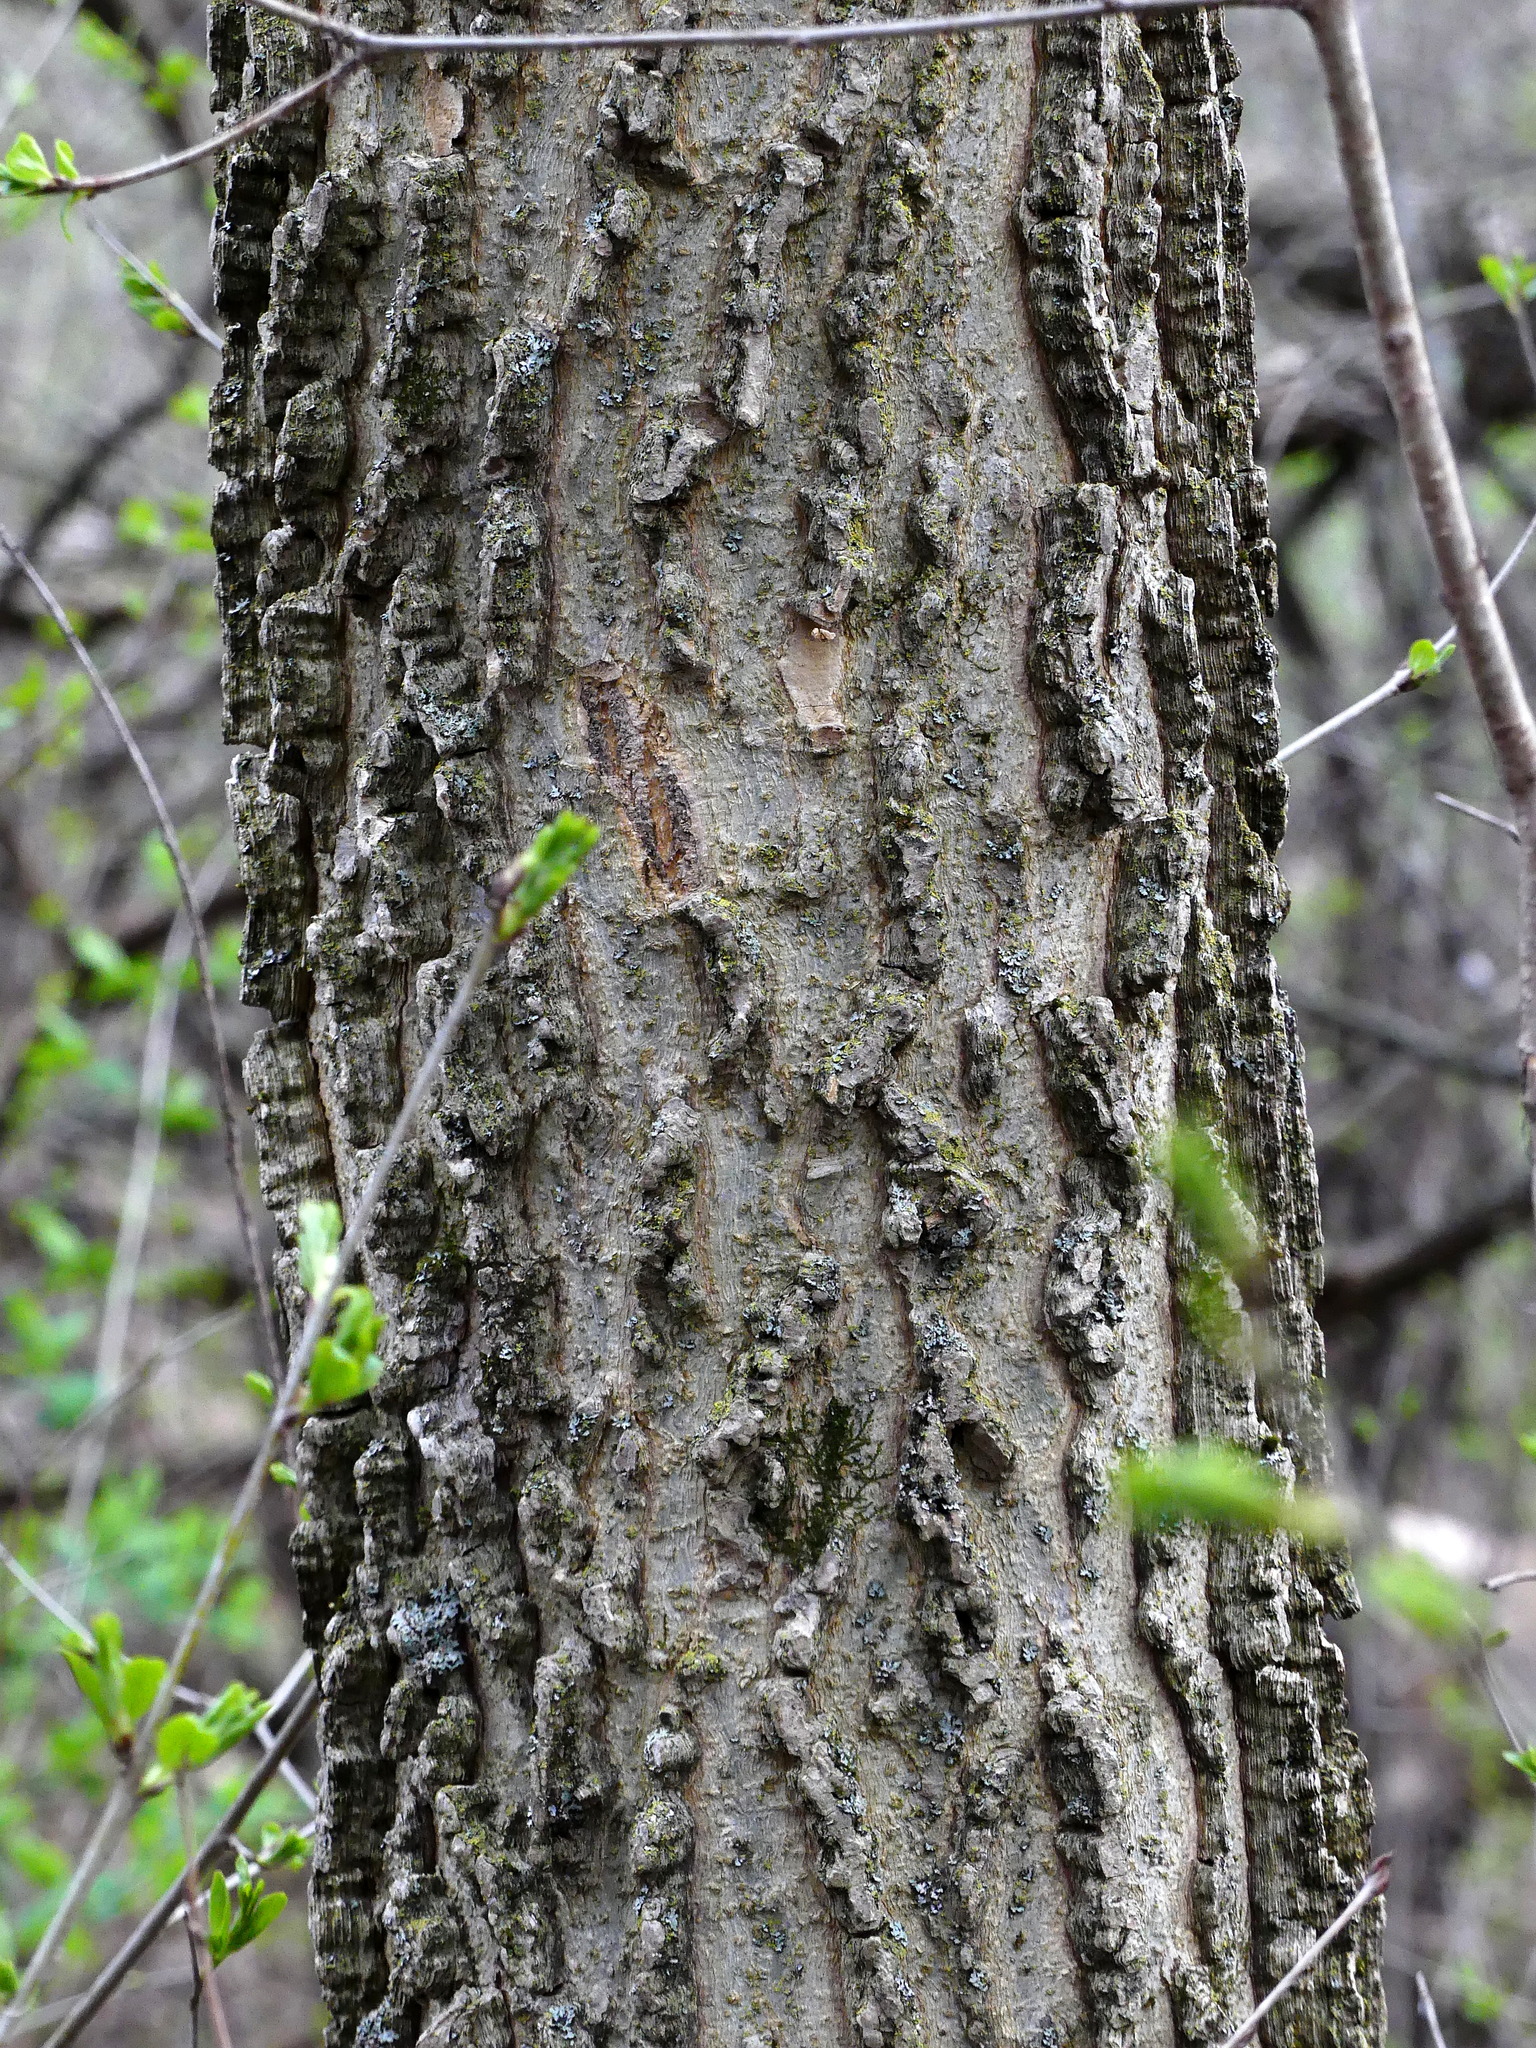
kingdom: Plantae
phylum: Tracheophyta
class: Magnoliopsida
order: Rosales
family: Cannabaceae
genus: Celtis
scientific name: Celtis occidentalis
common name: Common hackberry
